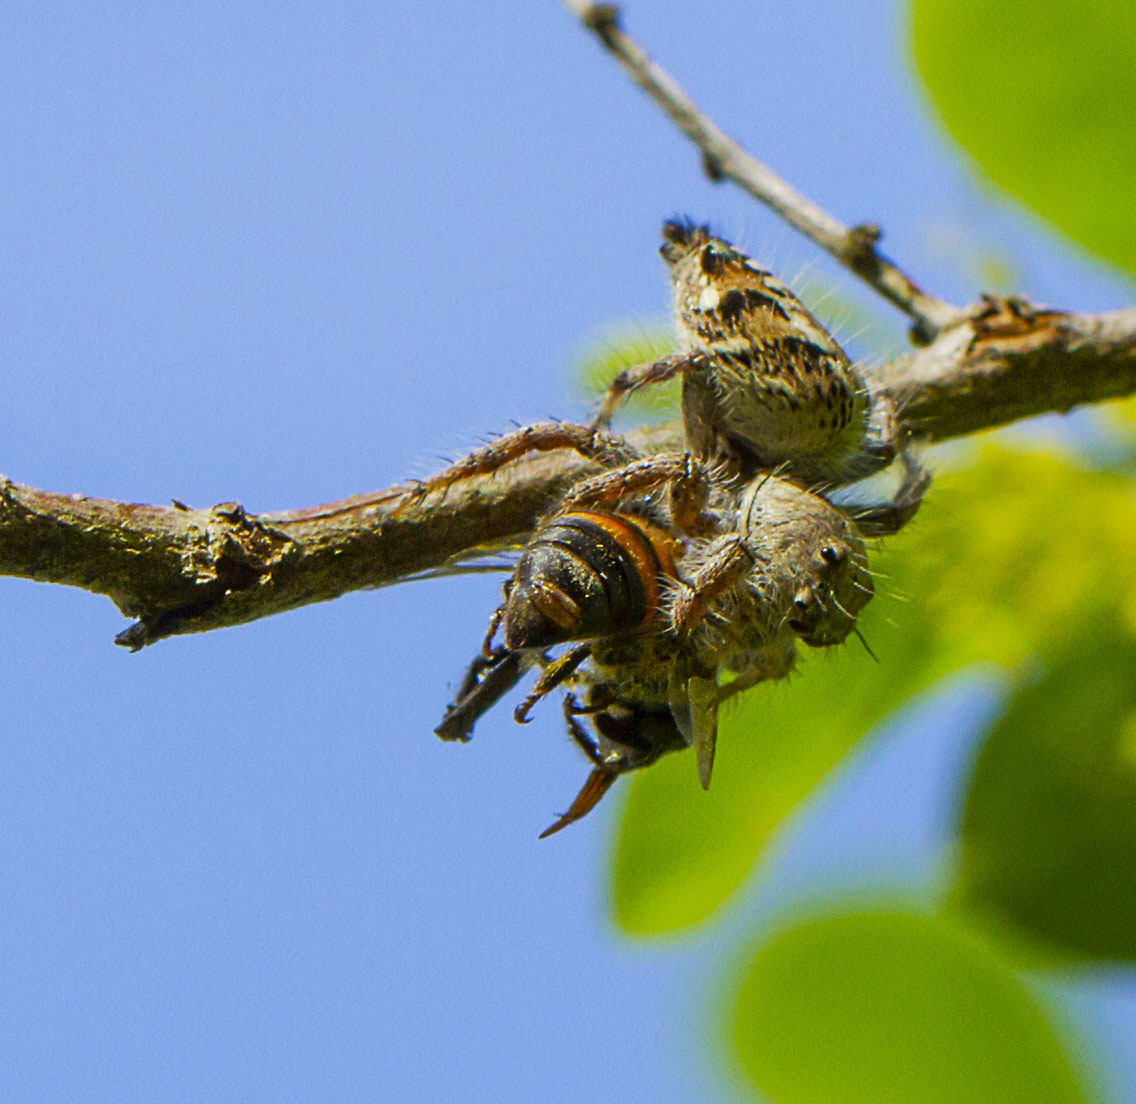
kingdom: Animalia
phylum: Arthropoda
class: Insecta
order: Hymenoptera
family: Apidae
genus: Apis
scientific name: Apis mellifera
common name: Honey bee
